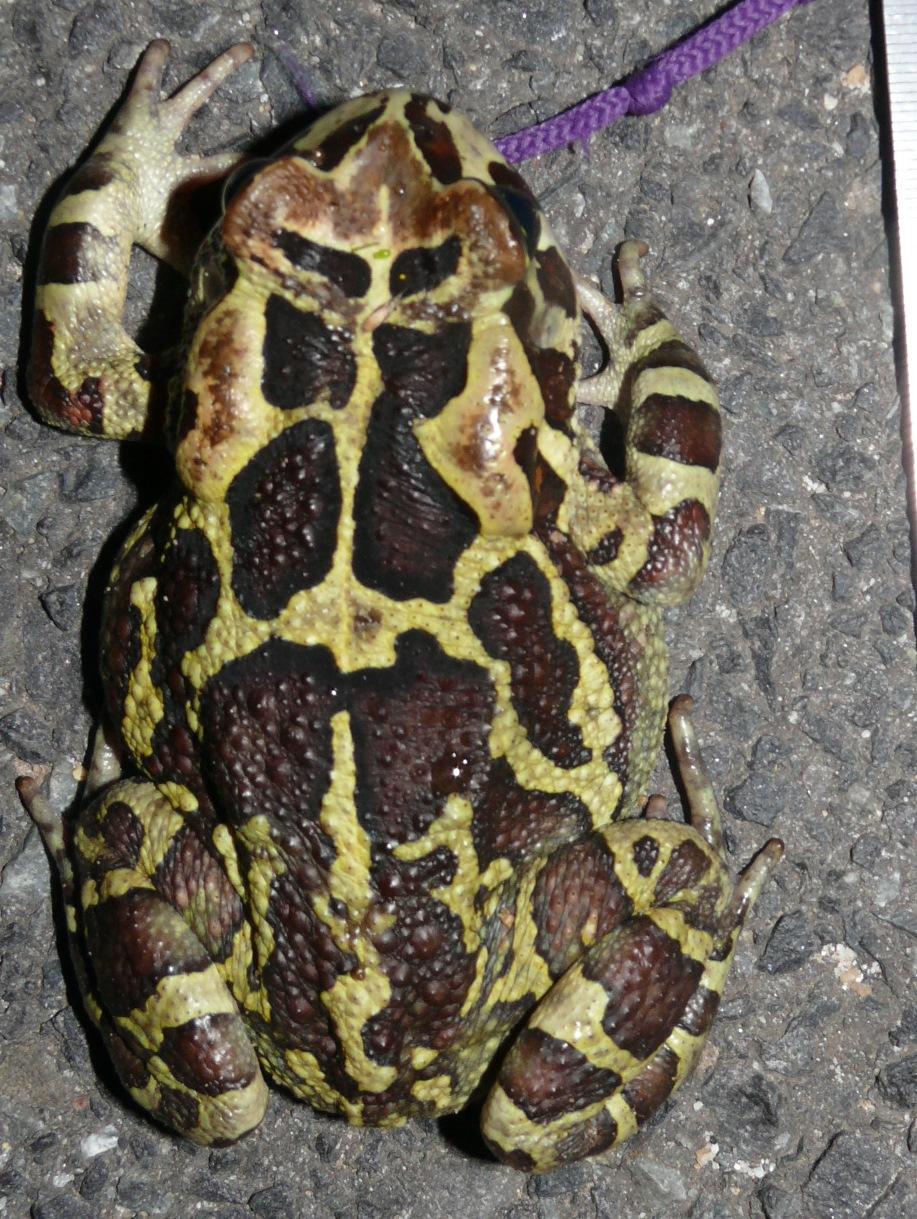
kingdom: Animalia
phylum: Chordata
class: Amphibia
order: Anura
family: Bufonidae
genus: Sclerophrys
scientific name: Sclerophrys pantherina
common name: Panther toad
